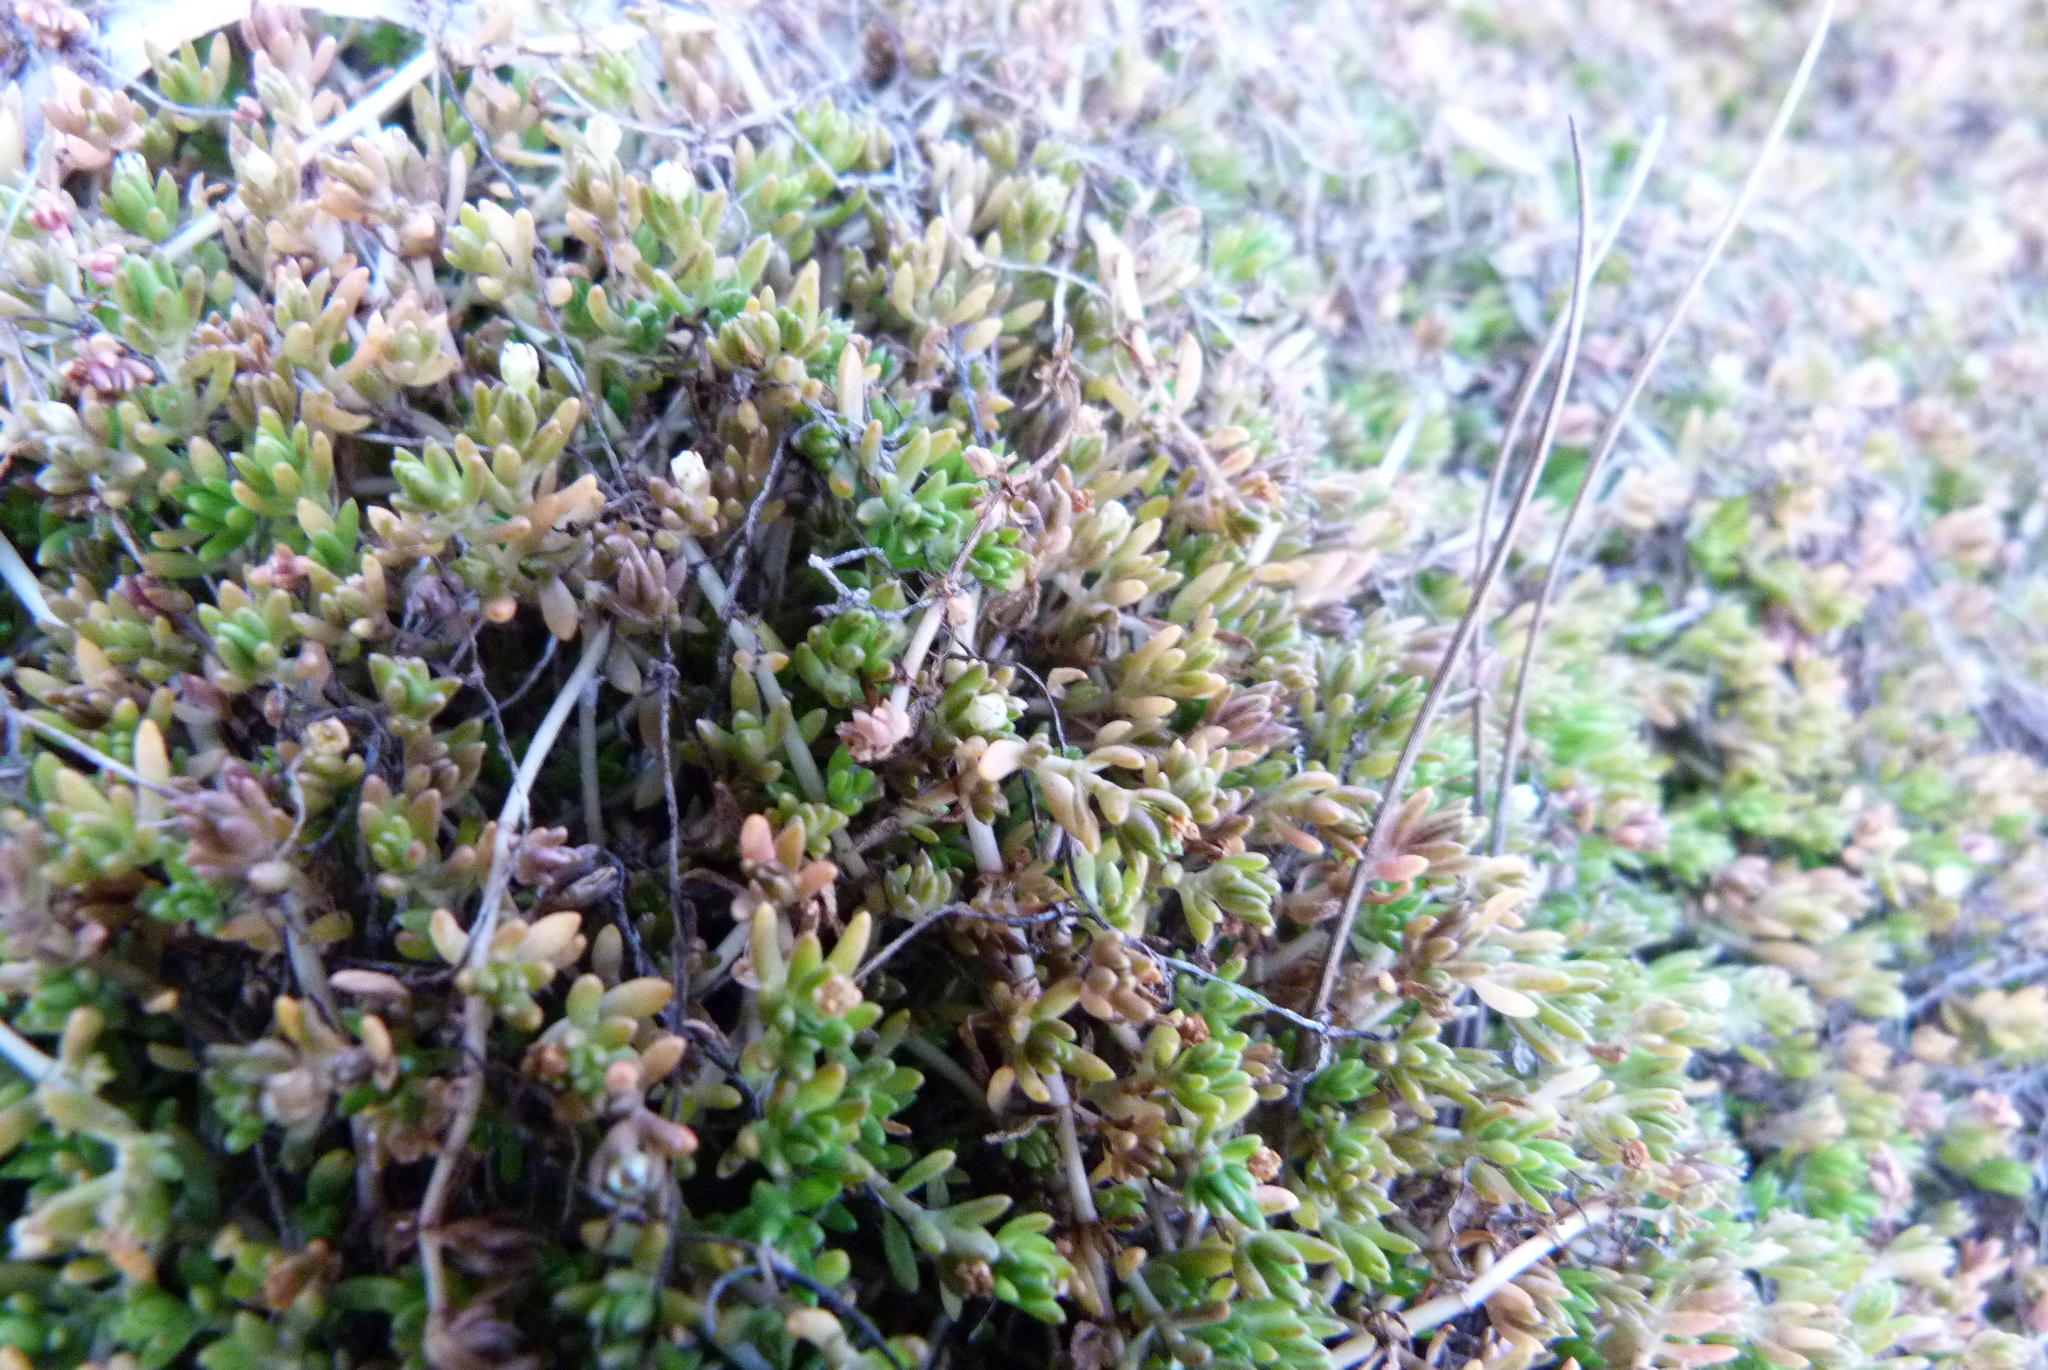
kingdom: Plantae
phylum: Tracheophyta
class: Magnoliopsida
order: Saxifragales
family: Crassulaceae
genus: Crassula
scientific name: Crassula sinclairii
